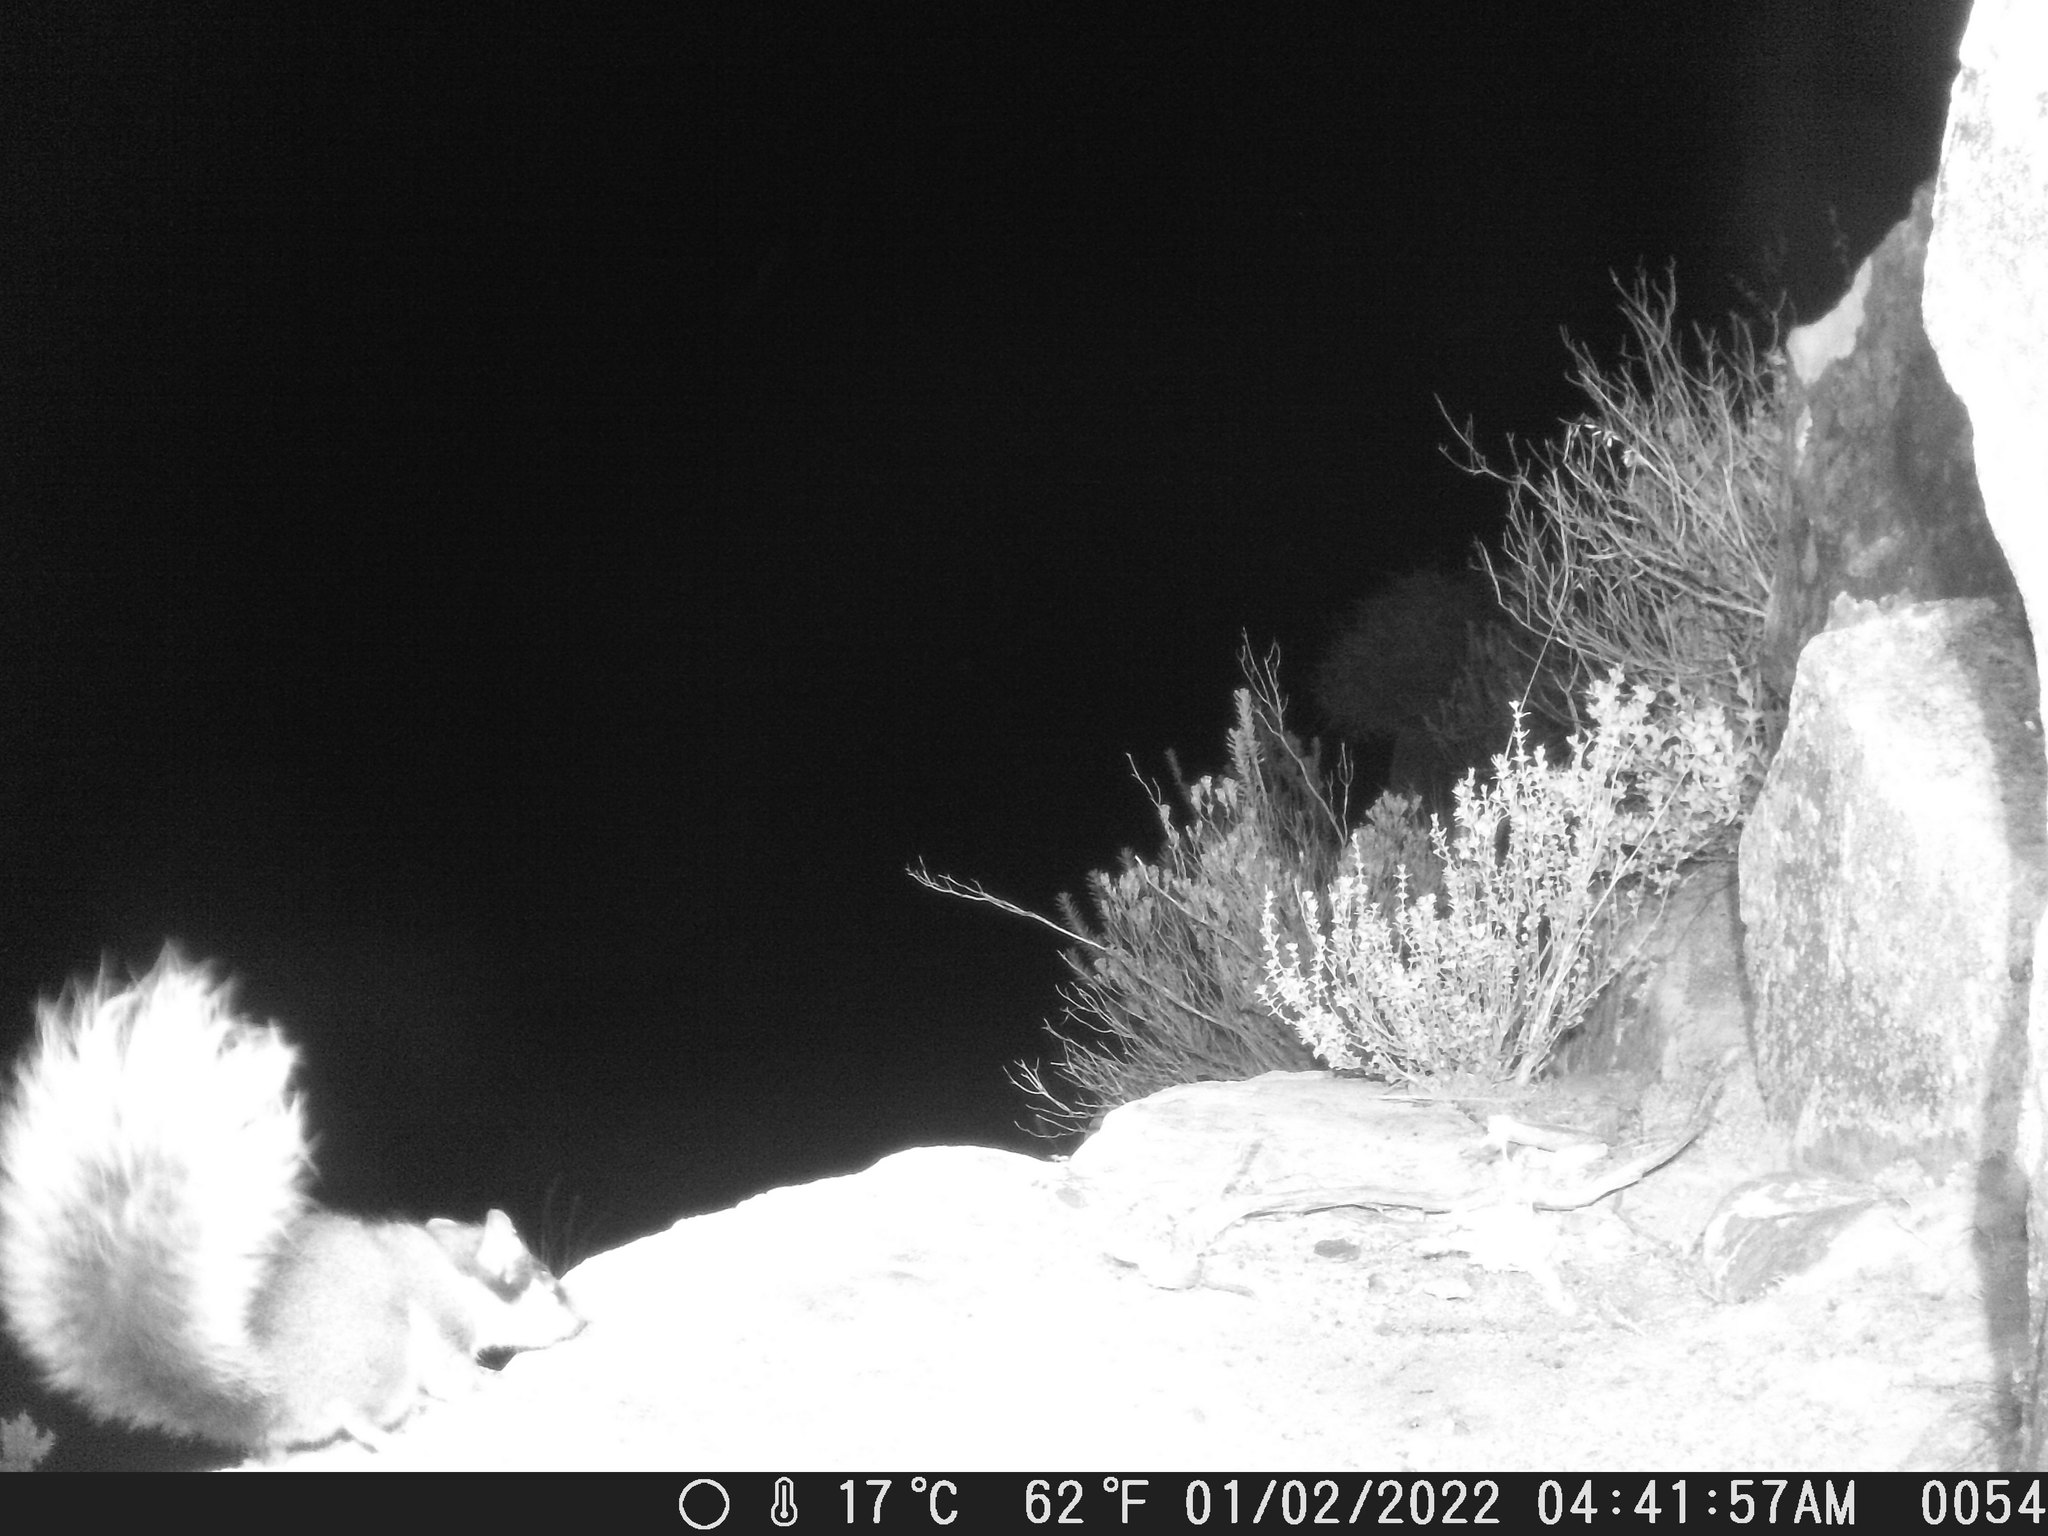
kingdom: Animalia
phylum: Chordata
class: Mammalia
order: Rodentia
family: Gliridae
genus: Graphiurus
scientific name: Graphiurus ocularis
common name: Spectacled african dormouse
